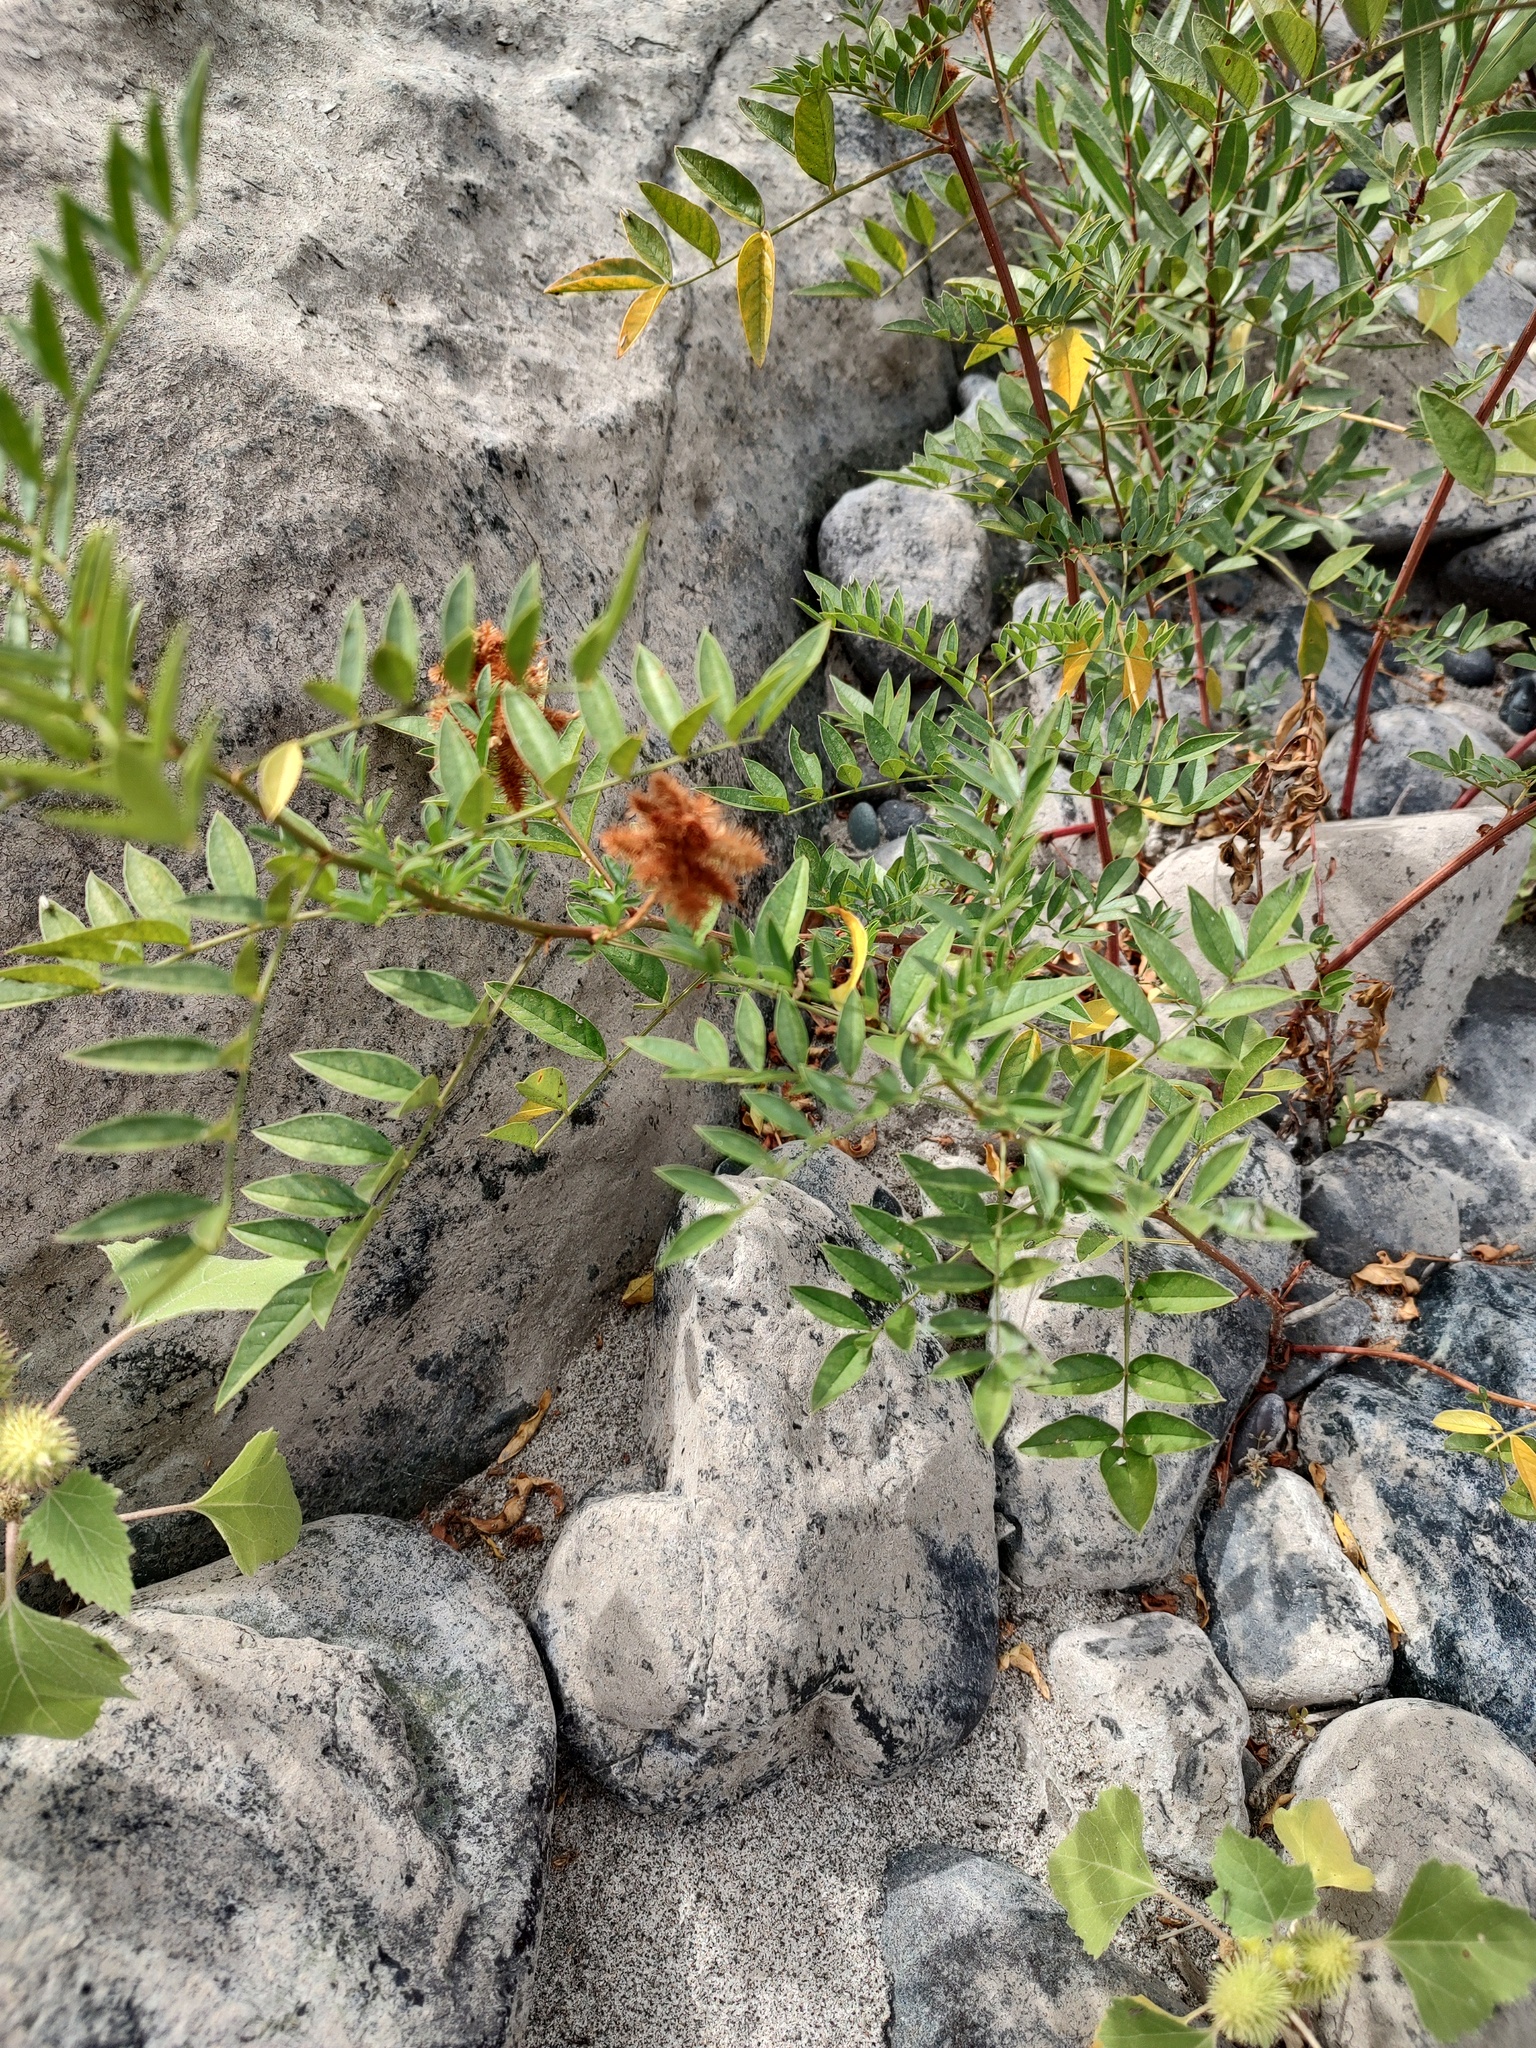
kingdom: Plantae
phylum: Tracheophyta
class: Magnoliopsida
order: Fabales
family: Fabaceae
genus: Glycyrrhiza
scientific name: Glycyrrhiza lepidota
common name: American liquorice
